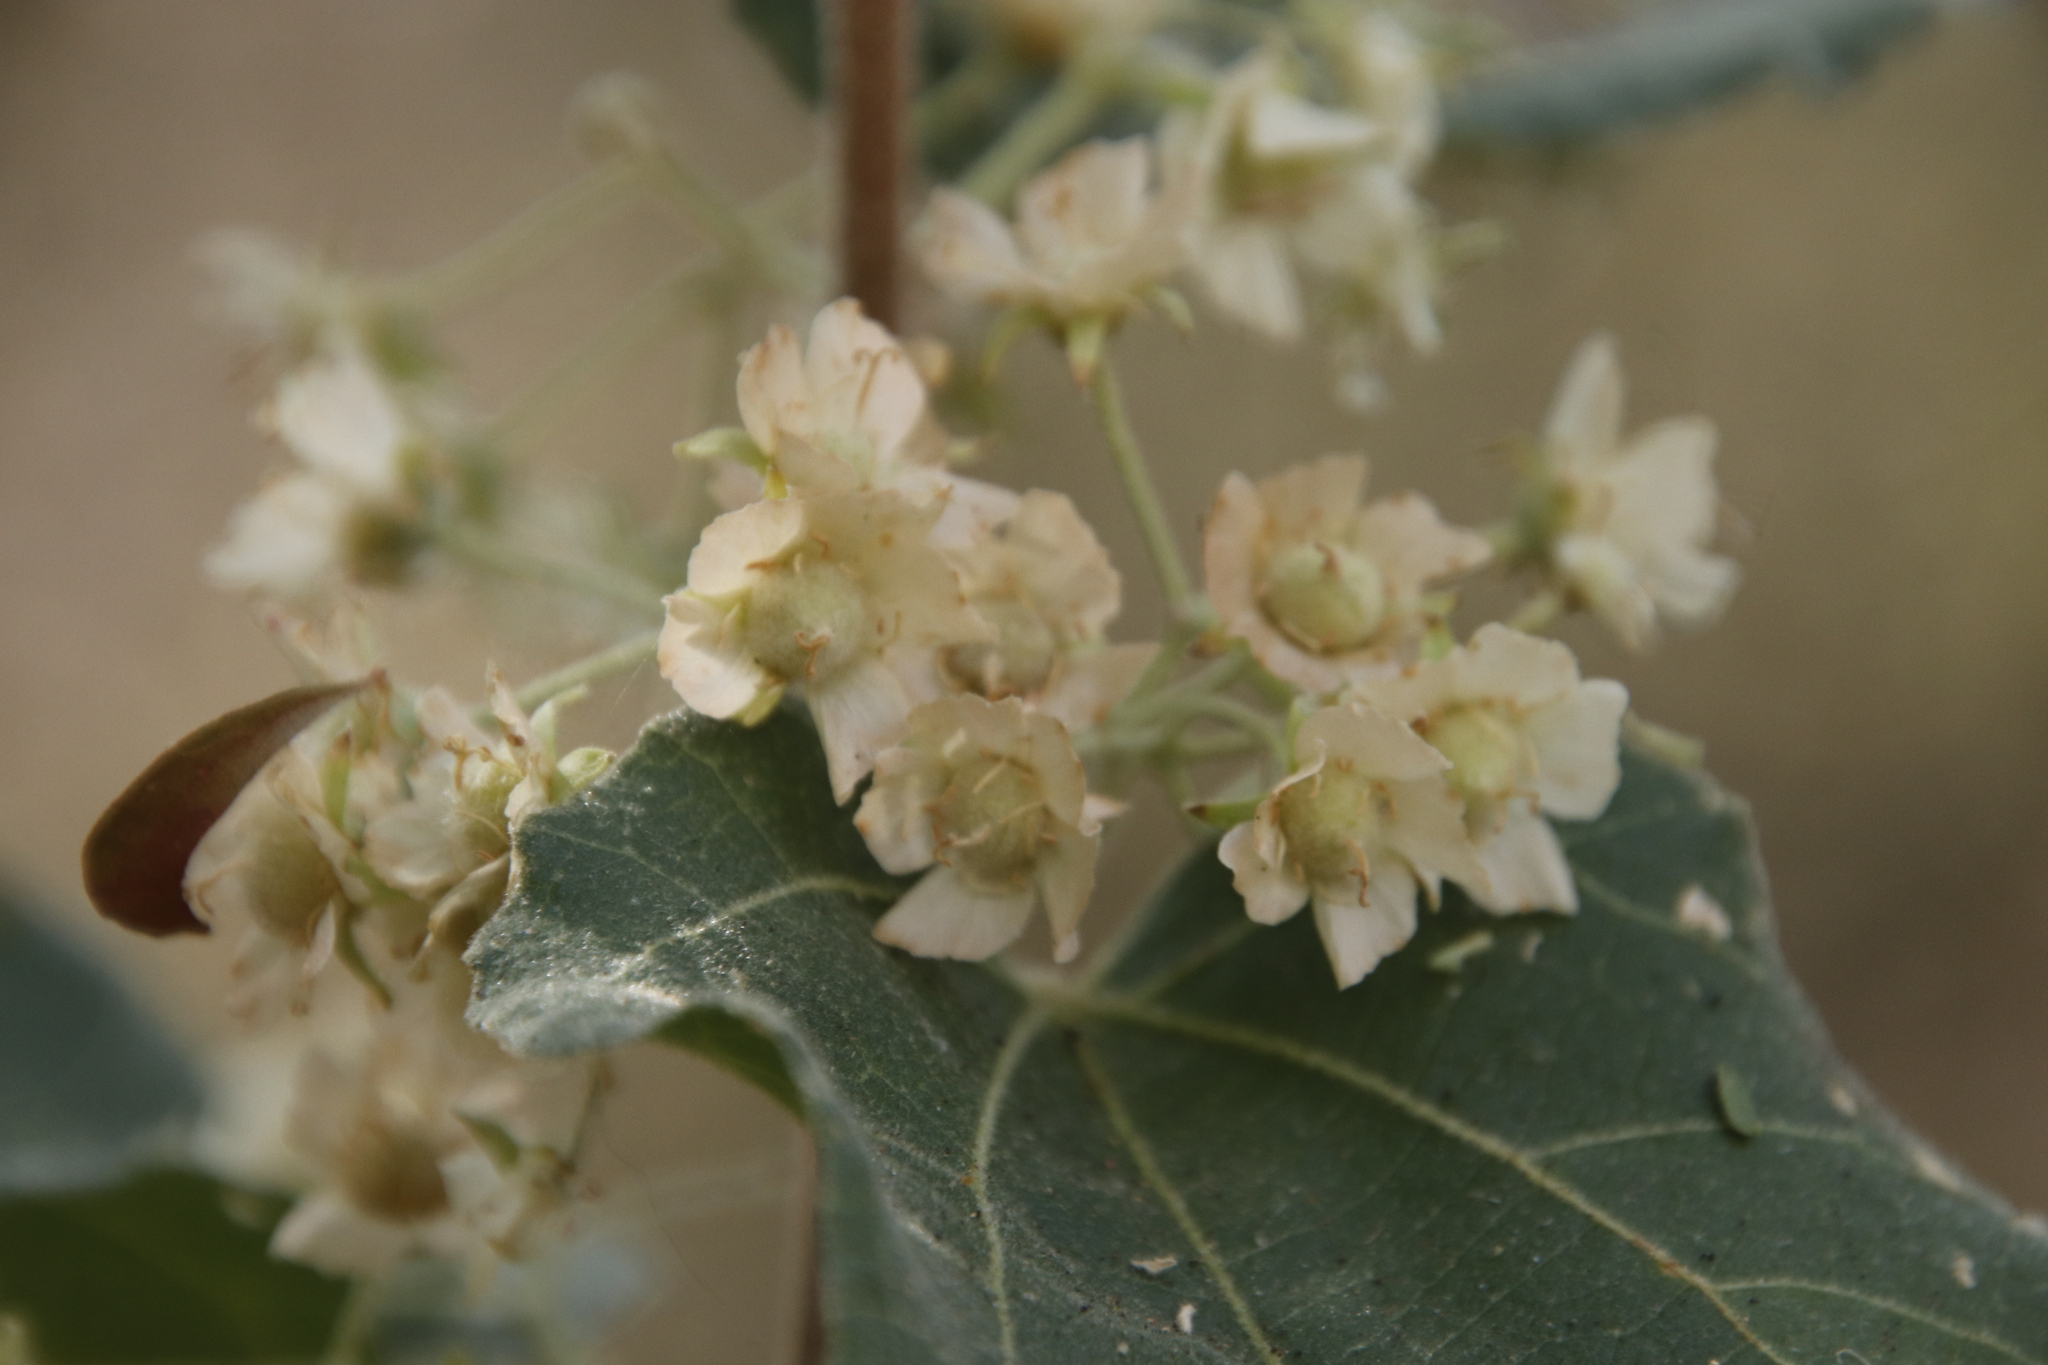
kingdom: Plantae
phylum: Tracheophyta
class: Magnoliopsida
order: Malvales
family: Malvaceae
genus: Dombeya
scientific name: Dombeya rotundifolia
